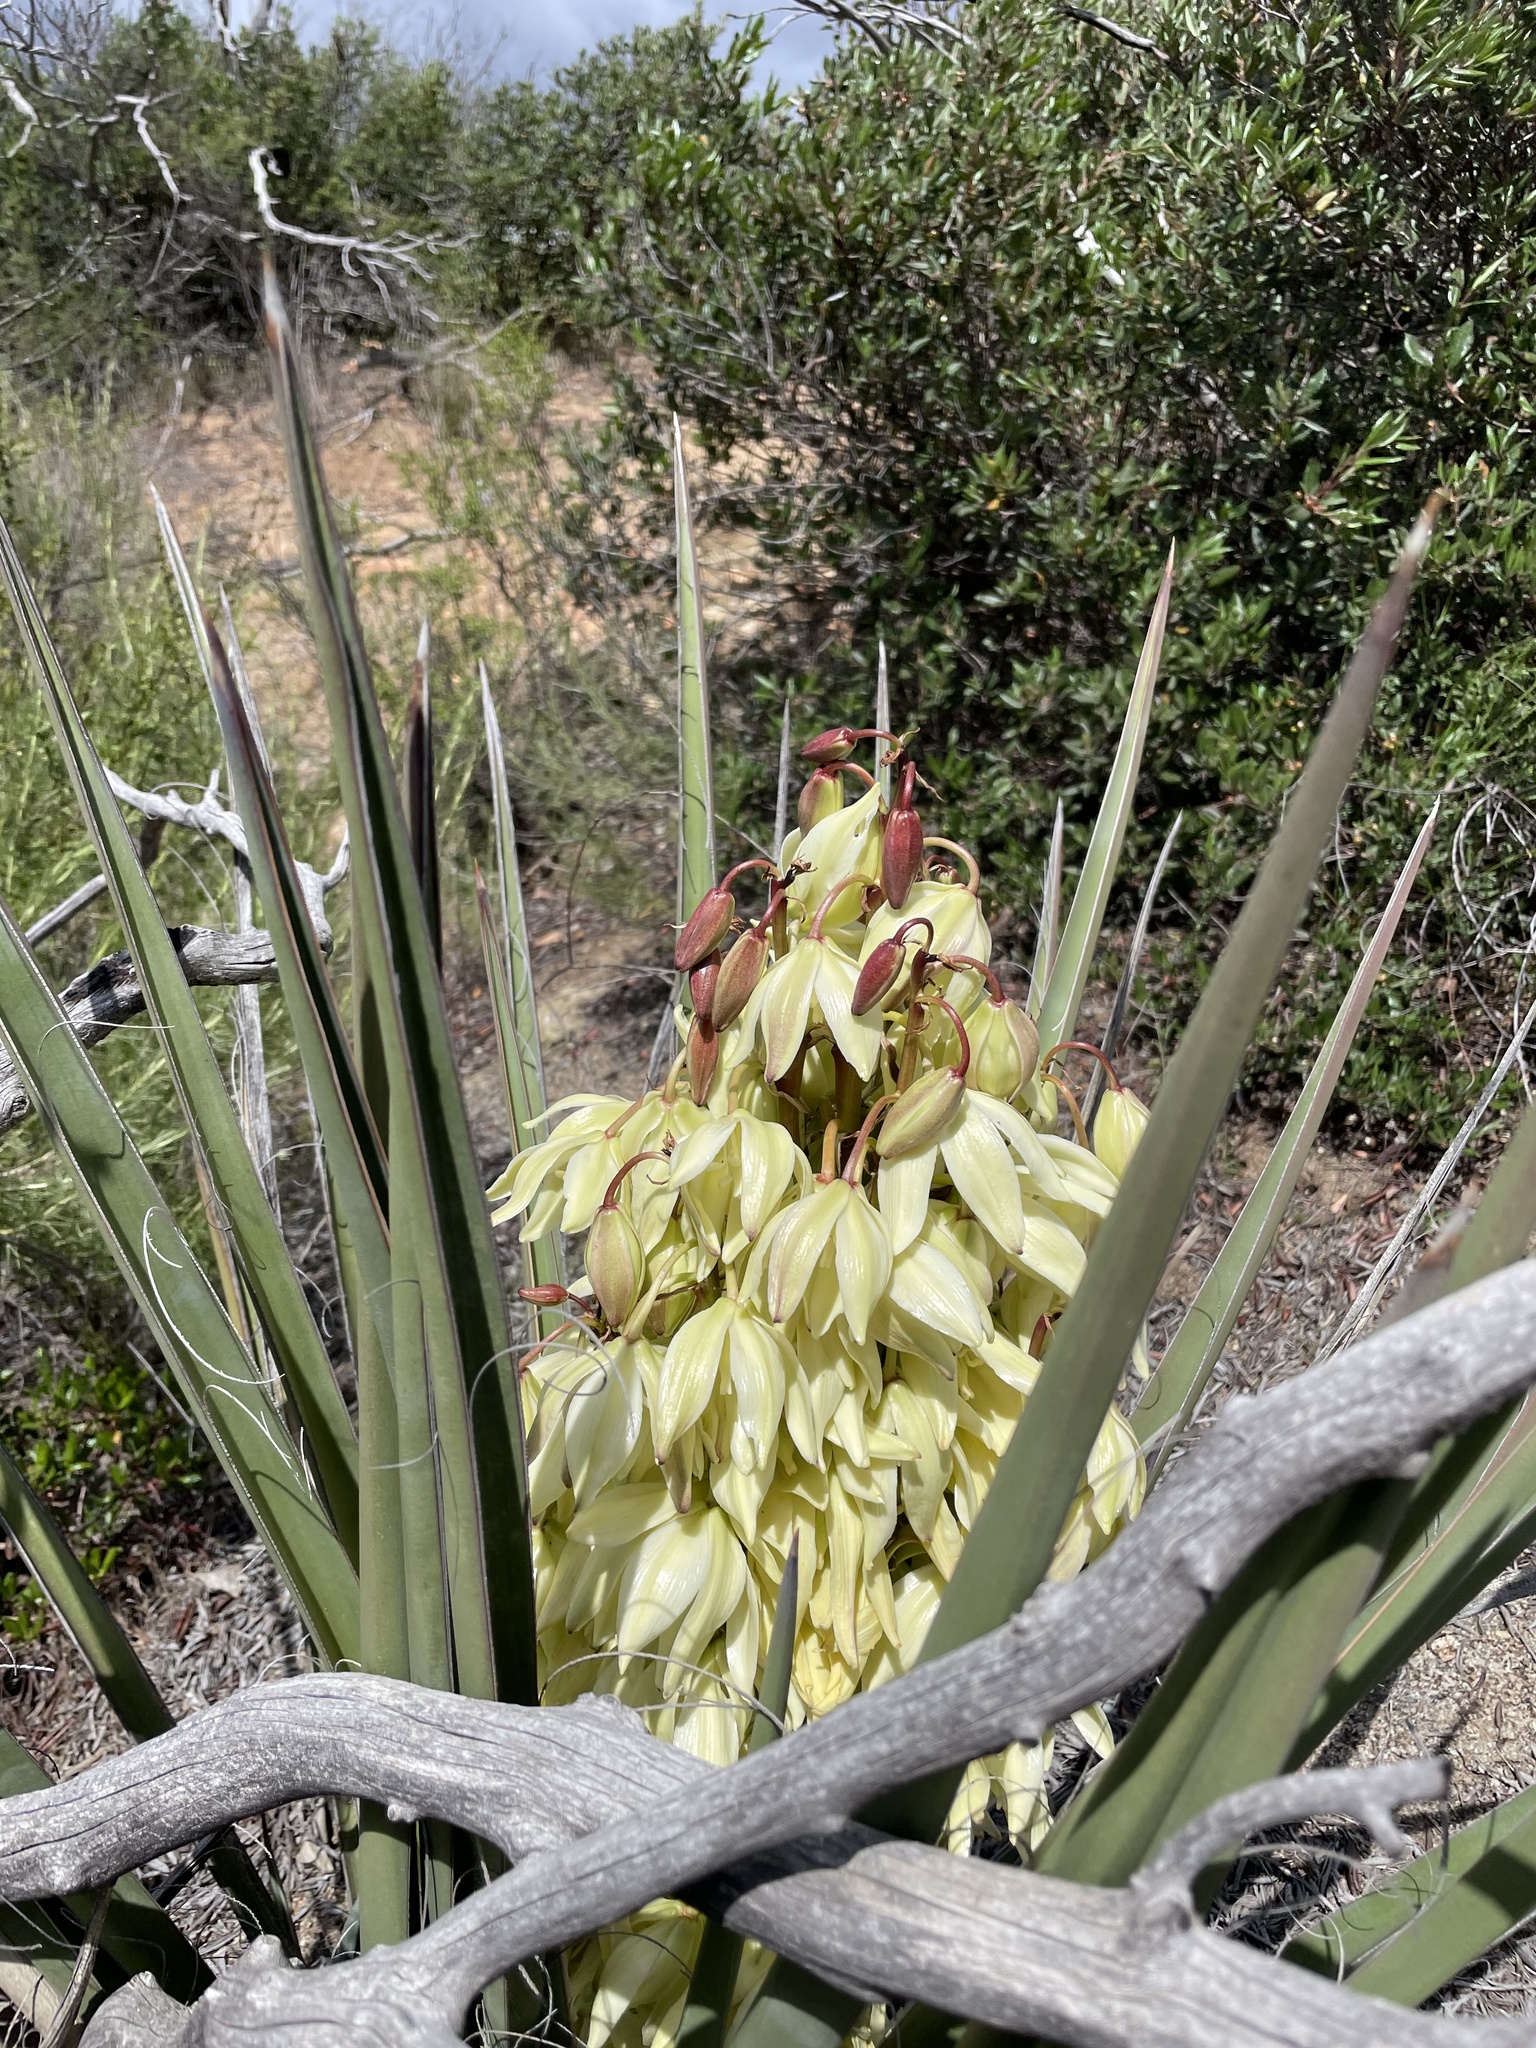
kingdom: Plantae
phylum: Tracheophyta
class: Liliopsida
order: Asparagales
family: Asparagaceae
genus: Yucca
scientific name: Yucca schidigera
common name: Mojave yucca
